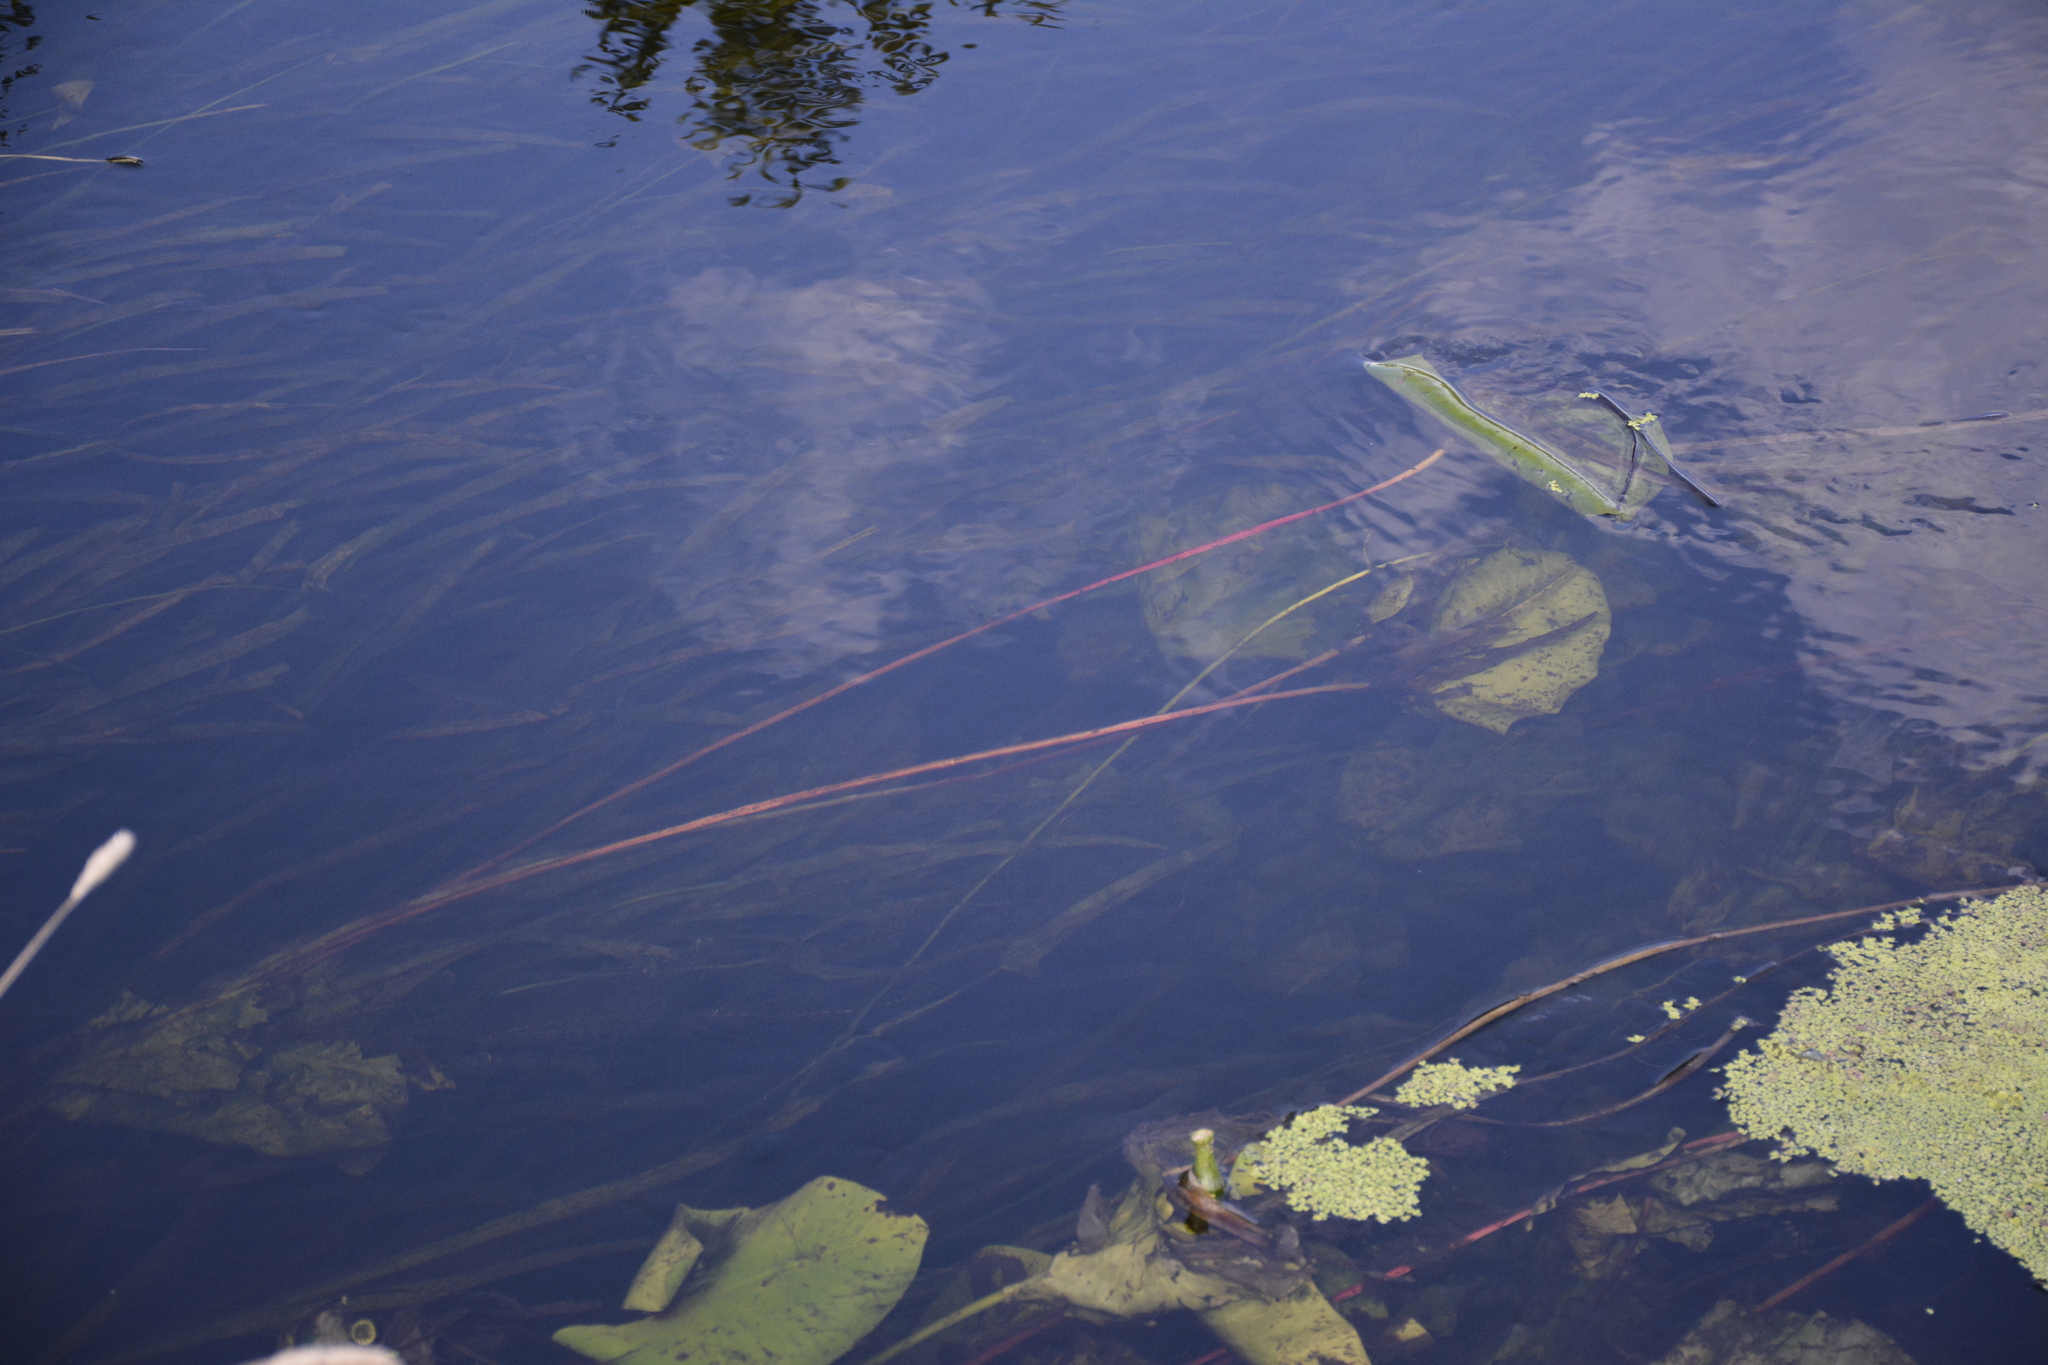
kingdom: Plantae
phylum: Tracheophyta
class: Magnoliopsida
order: Nymphaeales
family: Nymphaeaceae
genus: Nuphar
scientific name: Nuphar lutea
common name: Yellow water-lily
